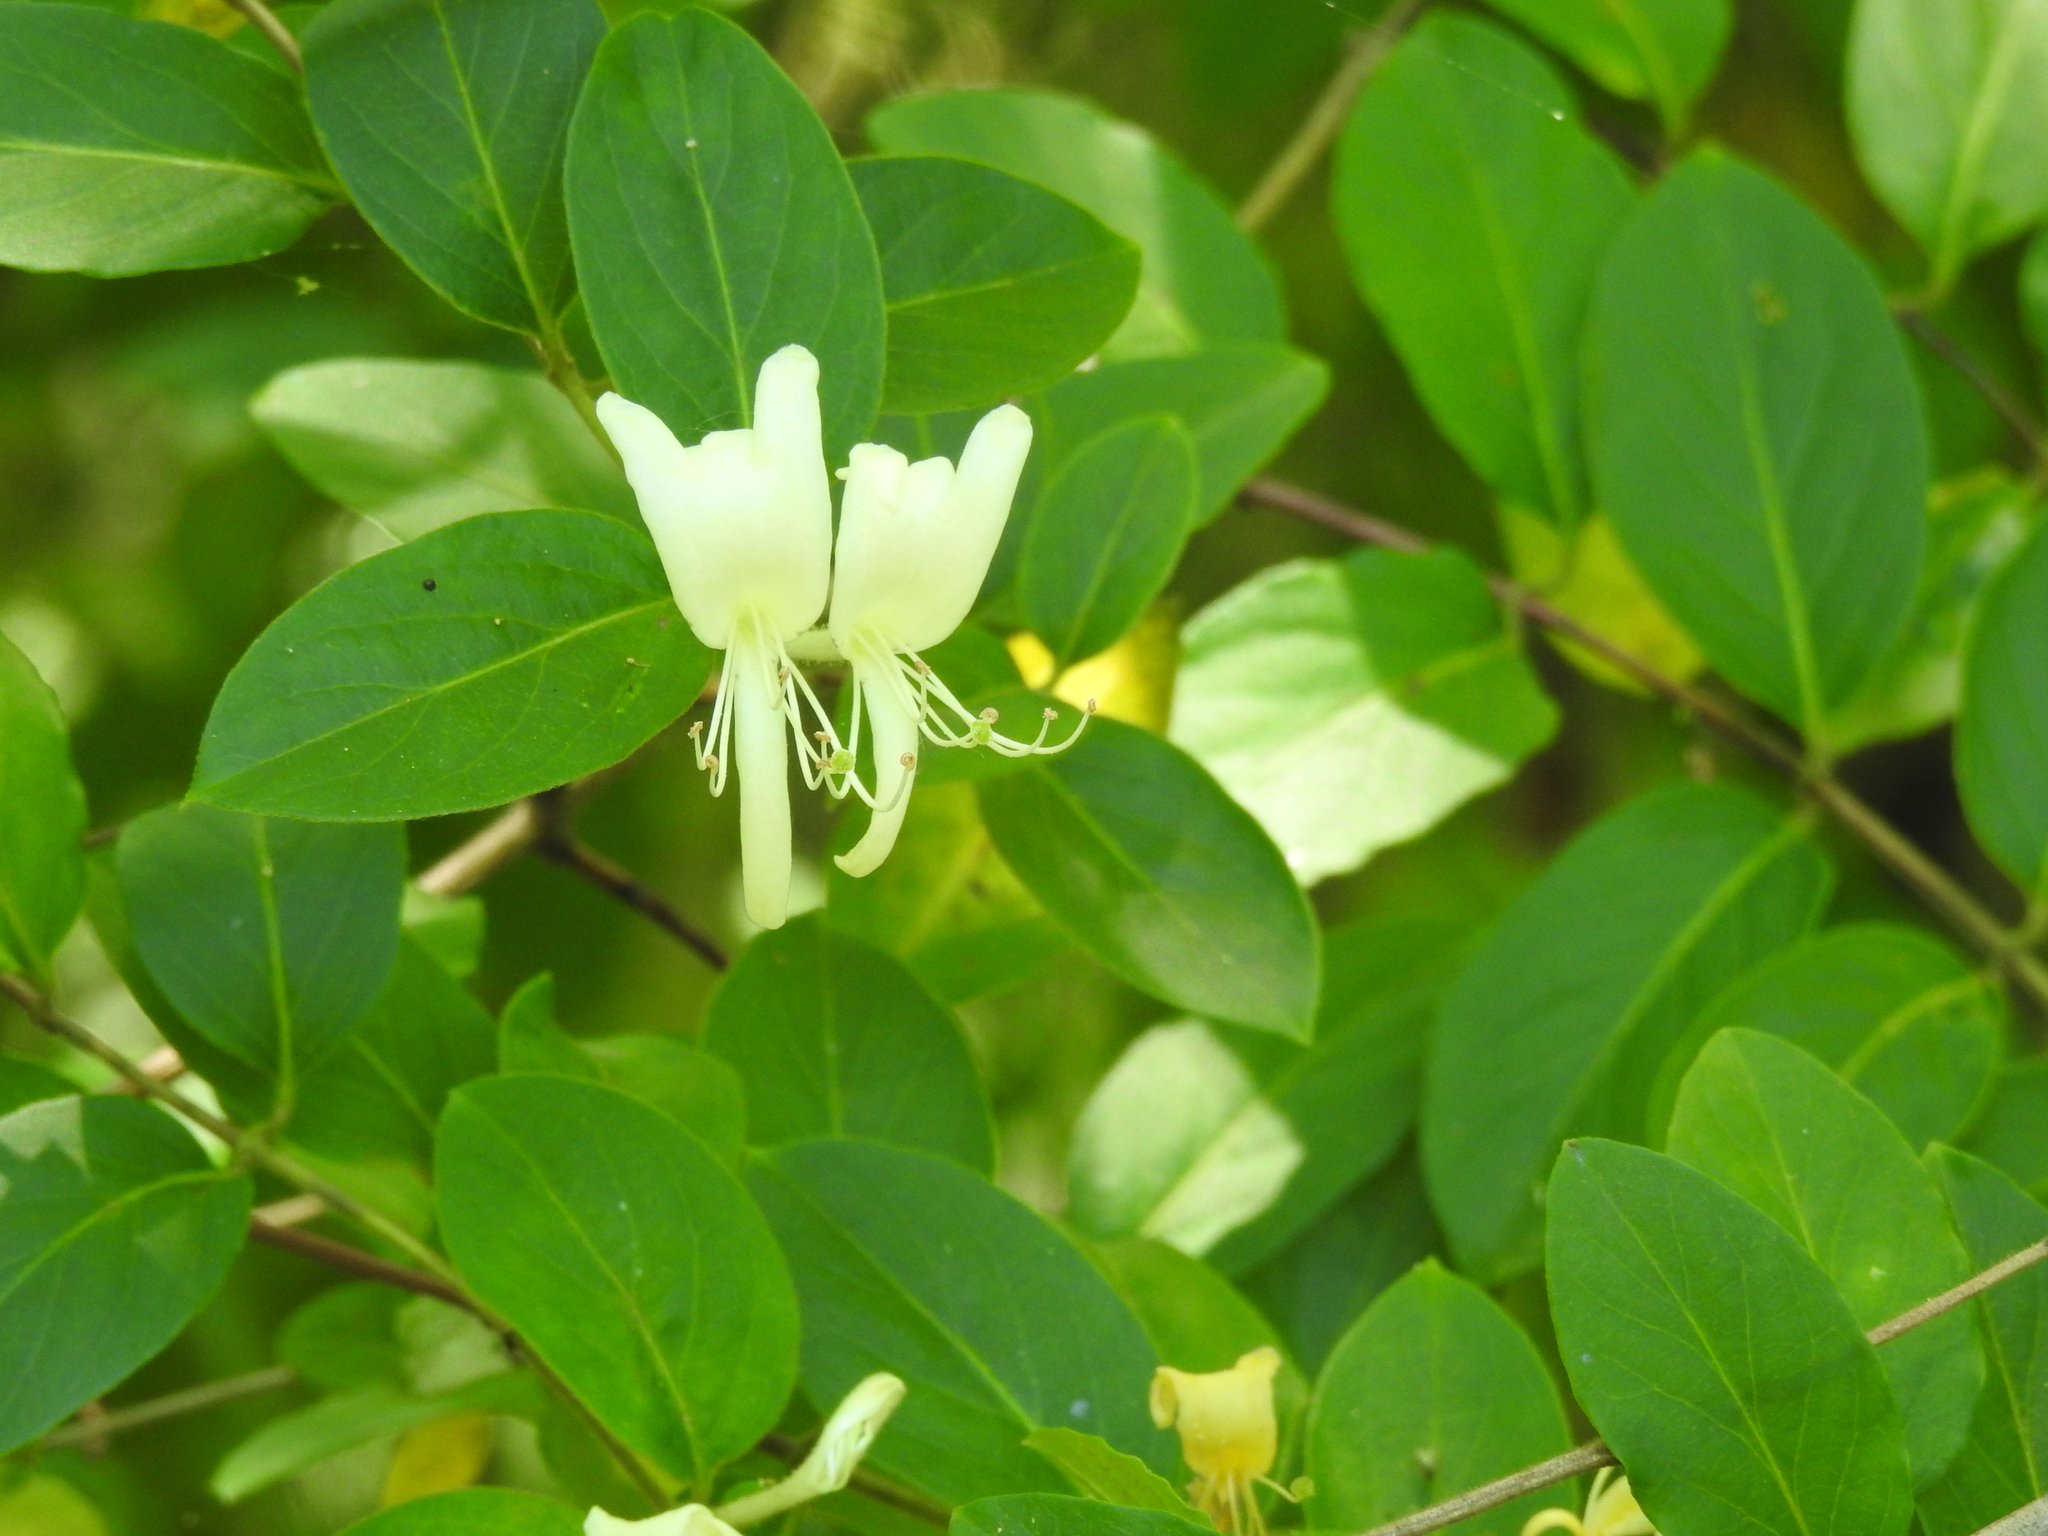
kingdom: Plantae
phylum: Tracheophyta
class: Magnoliopsida
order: Dipsacales
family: Caprifoliaceae
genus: Lonicera
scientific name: Lonicera japonica
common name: Japanese honeysuckle
